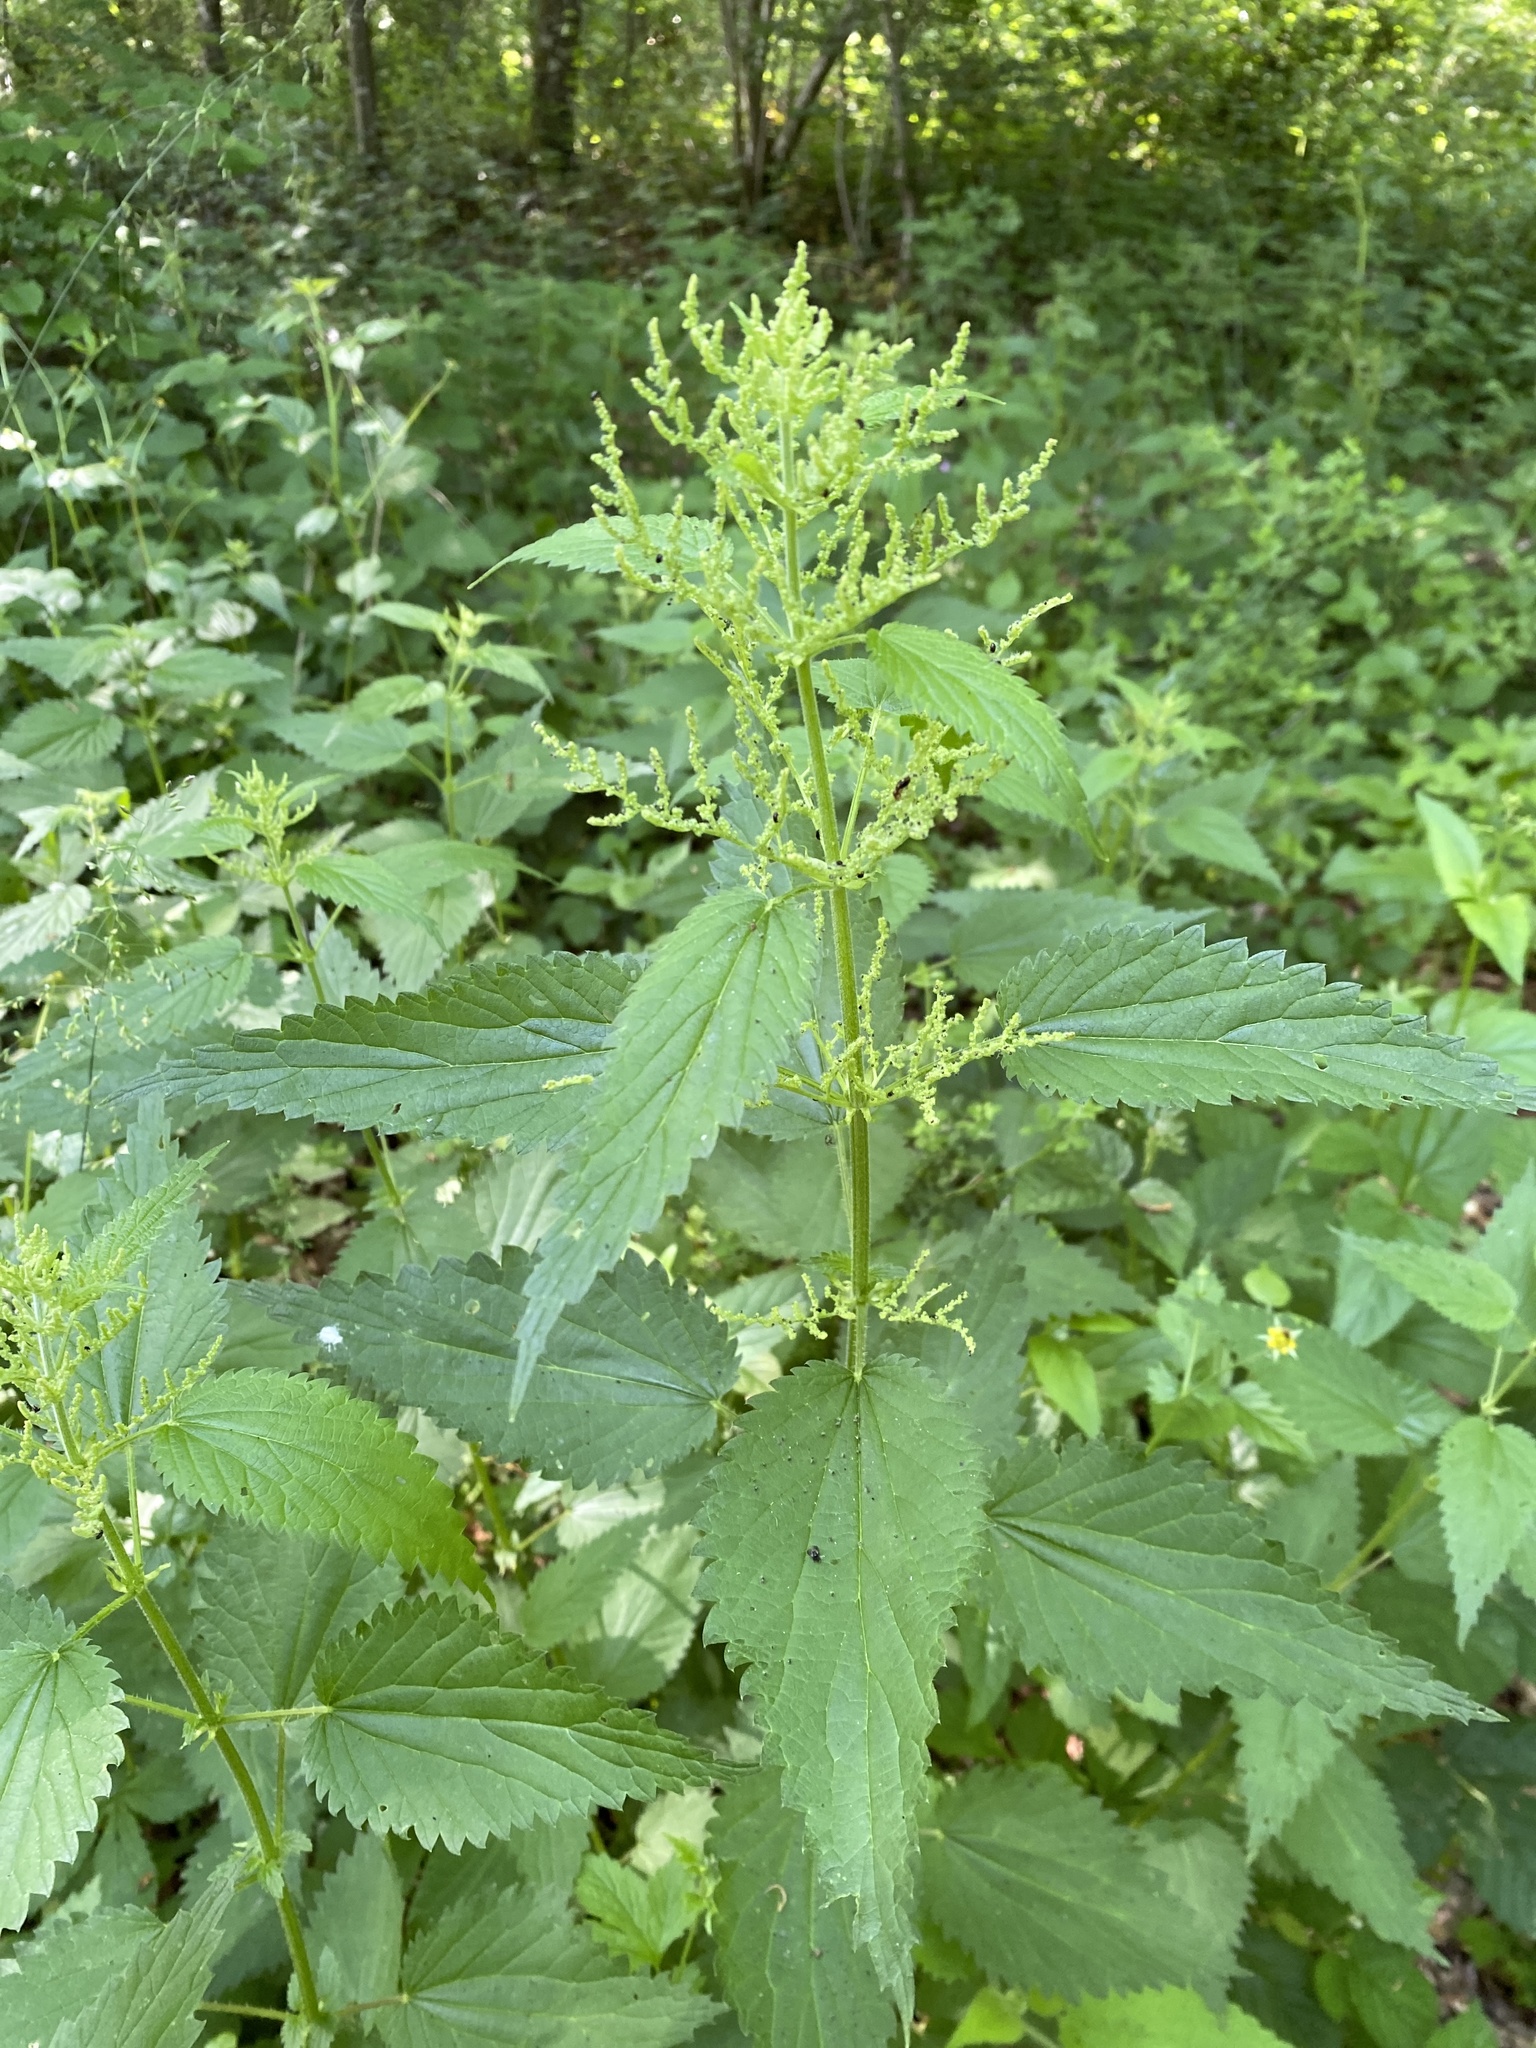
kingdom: Plantae
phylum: Tracheophyta
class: Magnoliopsida
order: Rosales
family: Urticaceae
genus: Urtica
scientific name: Urtica dioica
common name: Common nettle
